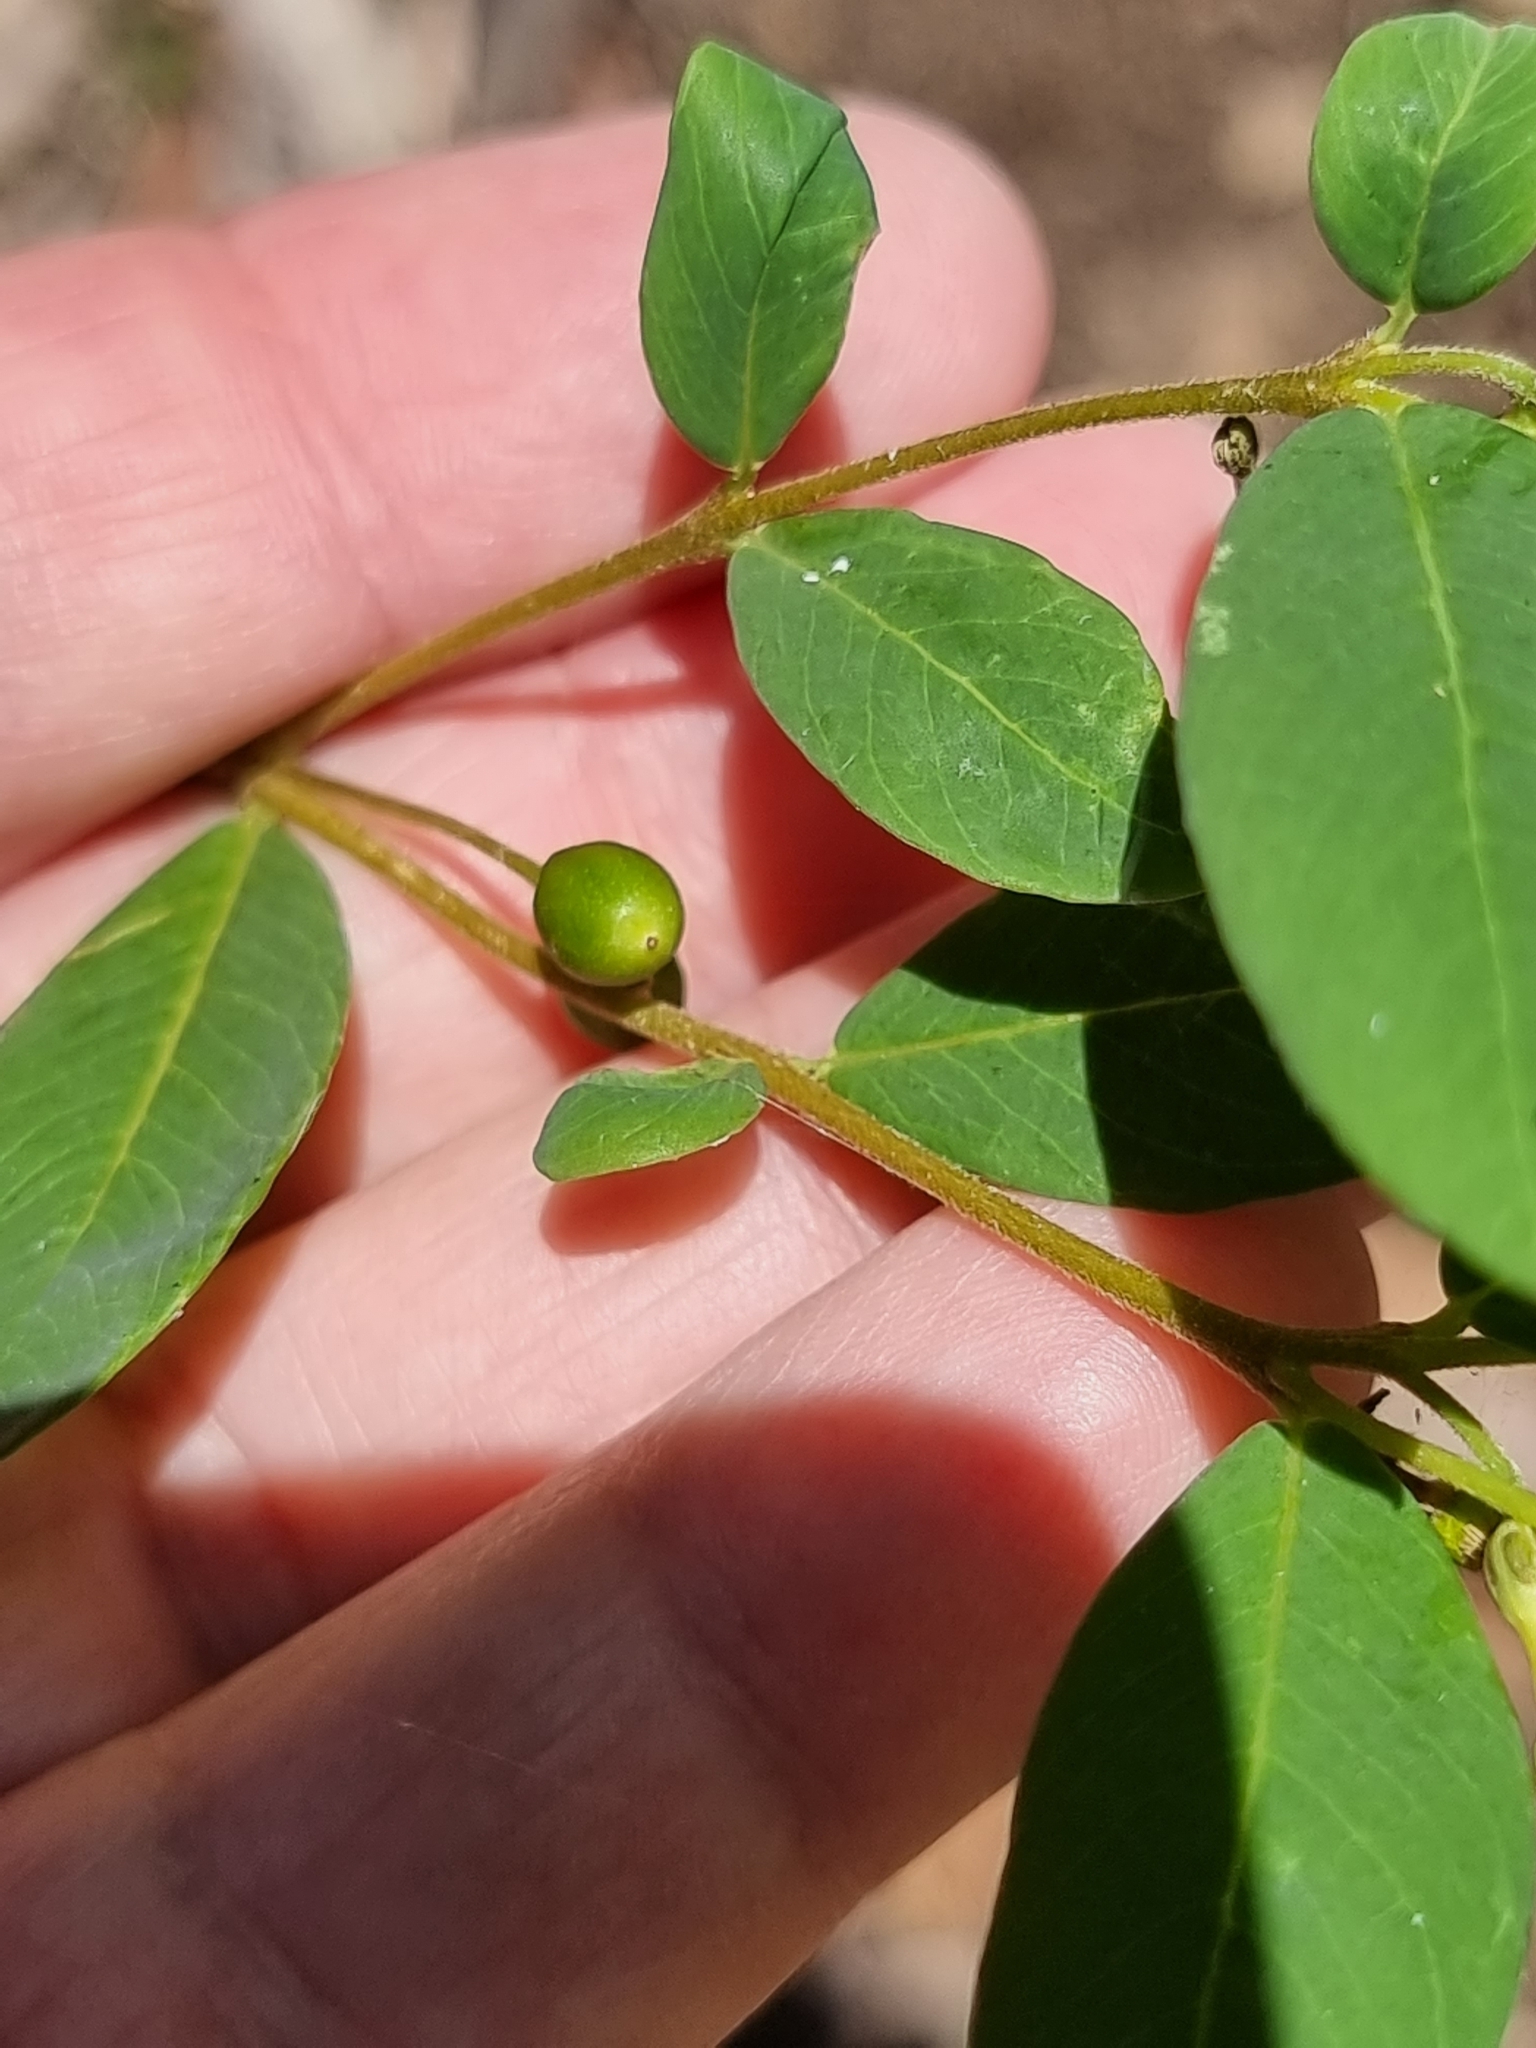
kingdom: Plantae
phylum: Tracheophyta
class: Magnoliopsida
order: Malvales
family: Thymelaeaceae
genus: Wikstroemia
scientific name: Wikstroemia indica
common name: Tiebush
